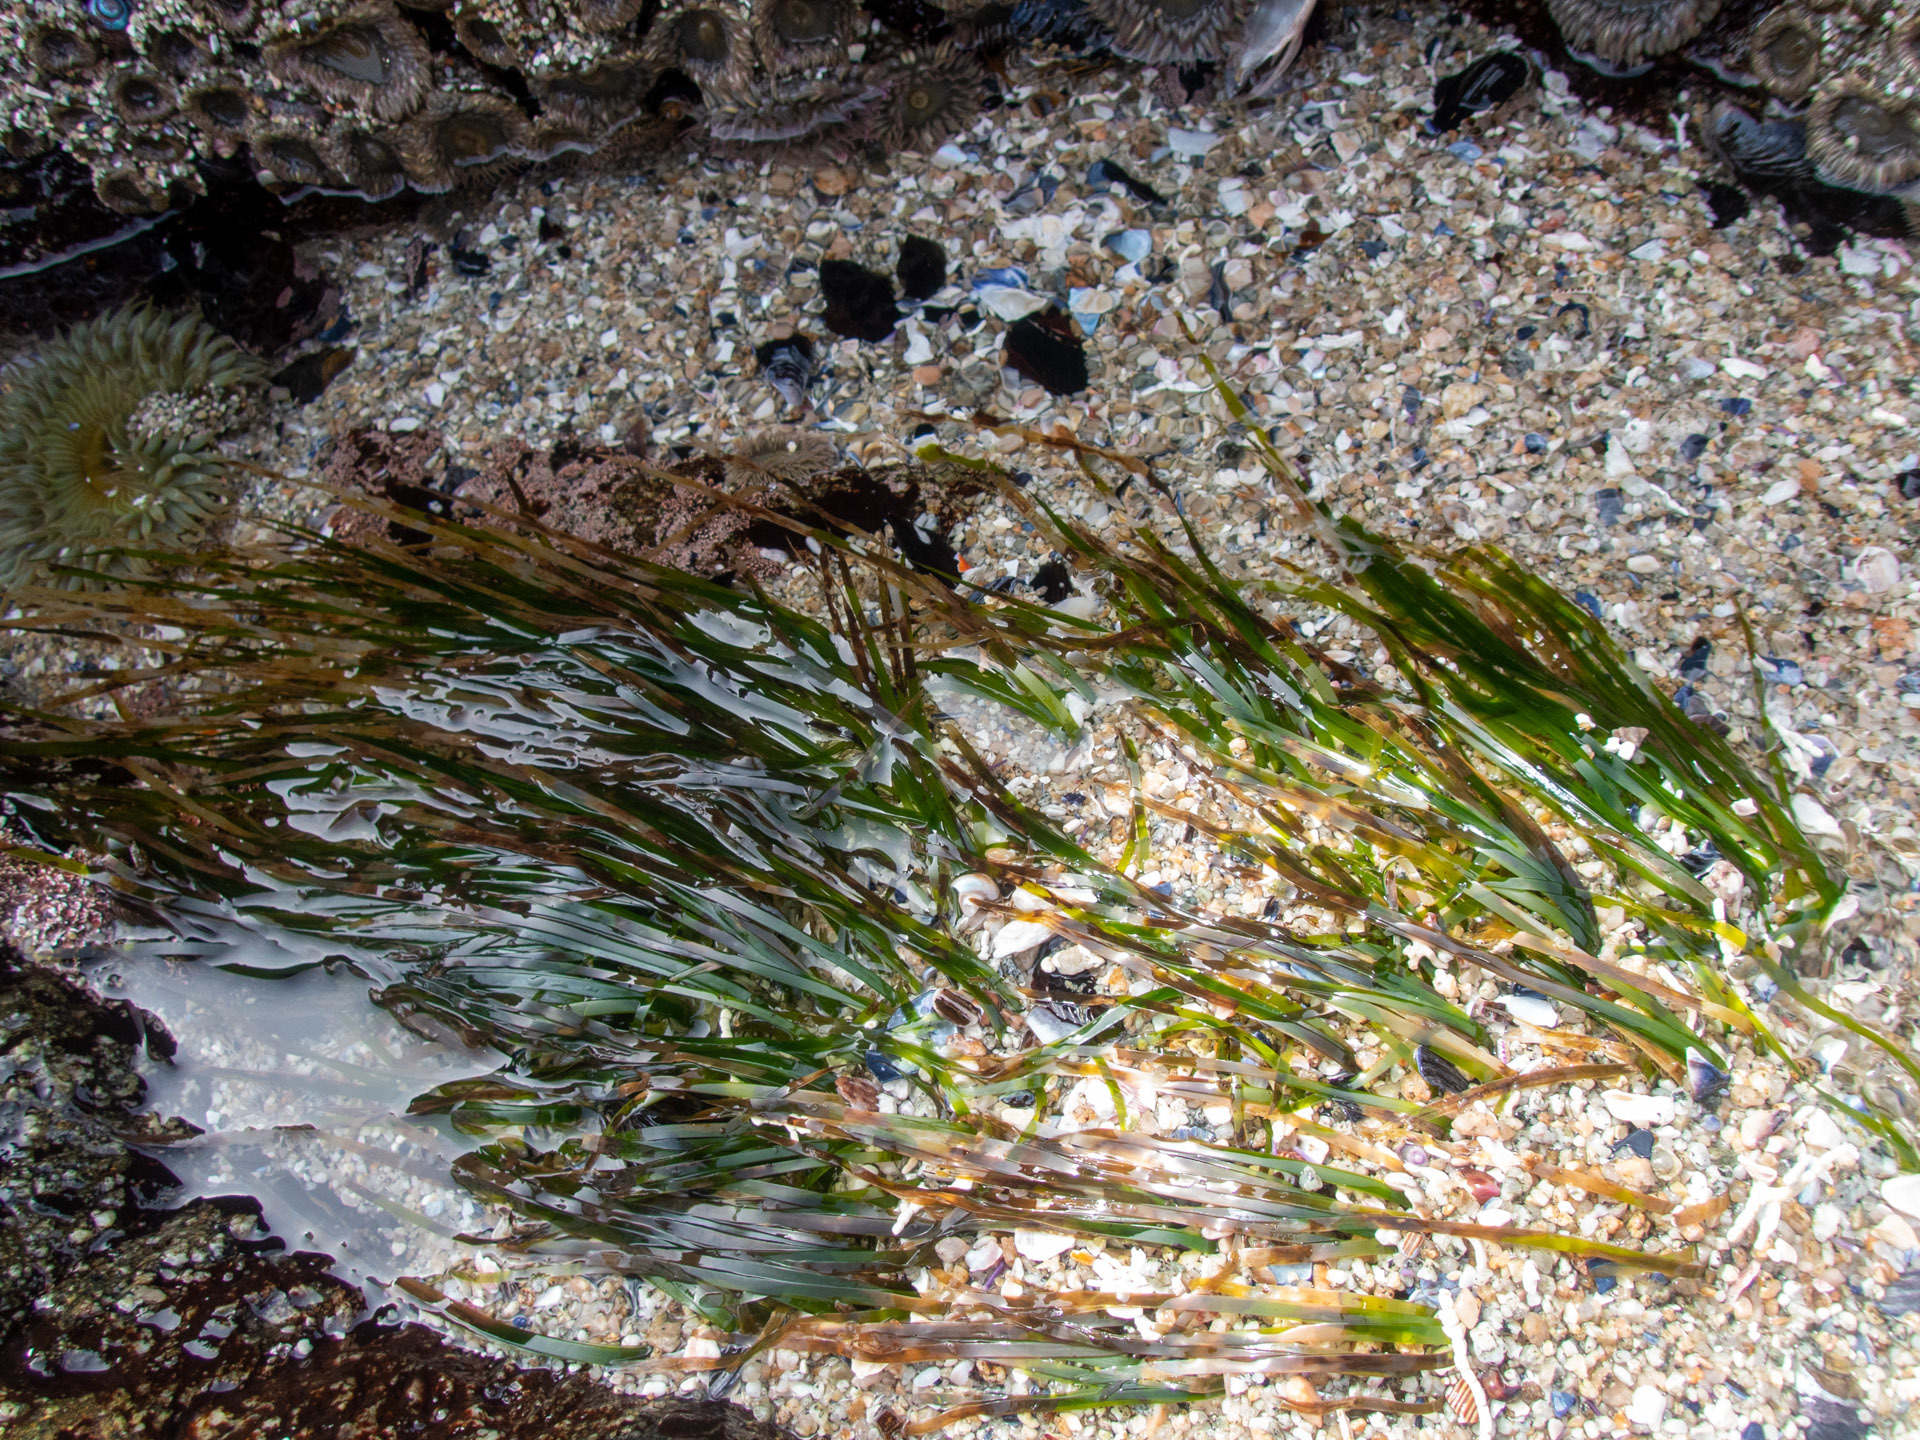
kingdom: Plantae
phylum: Tracheophyta
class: Liliopsida
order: Alismatales
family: Zosteraceae
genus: Phyllospadix
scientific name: Phyllospadix scouleri
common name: Species code: ps
